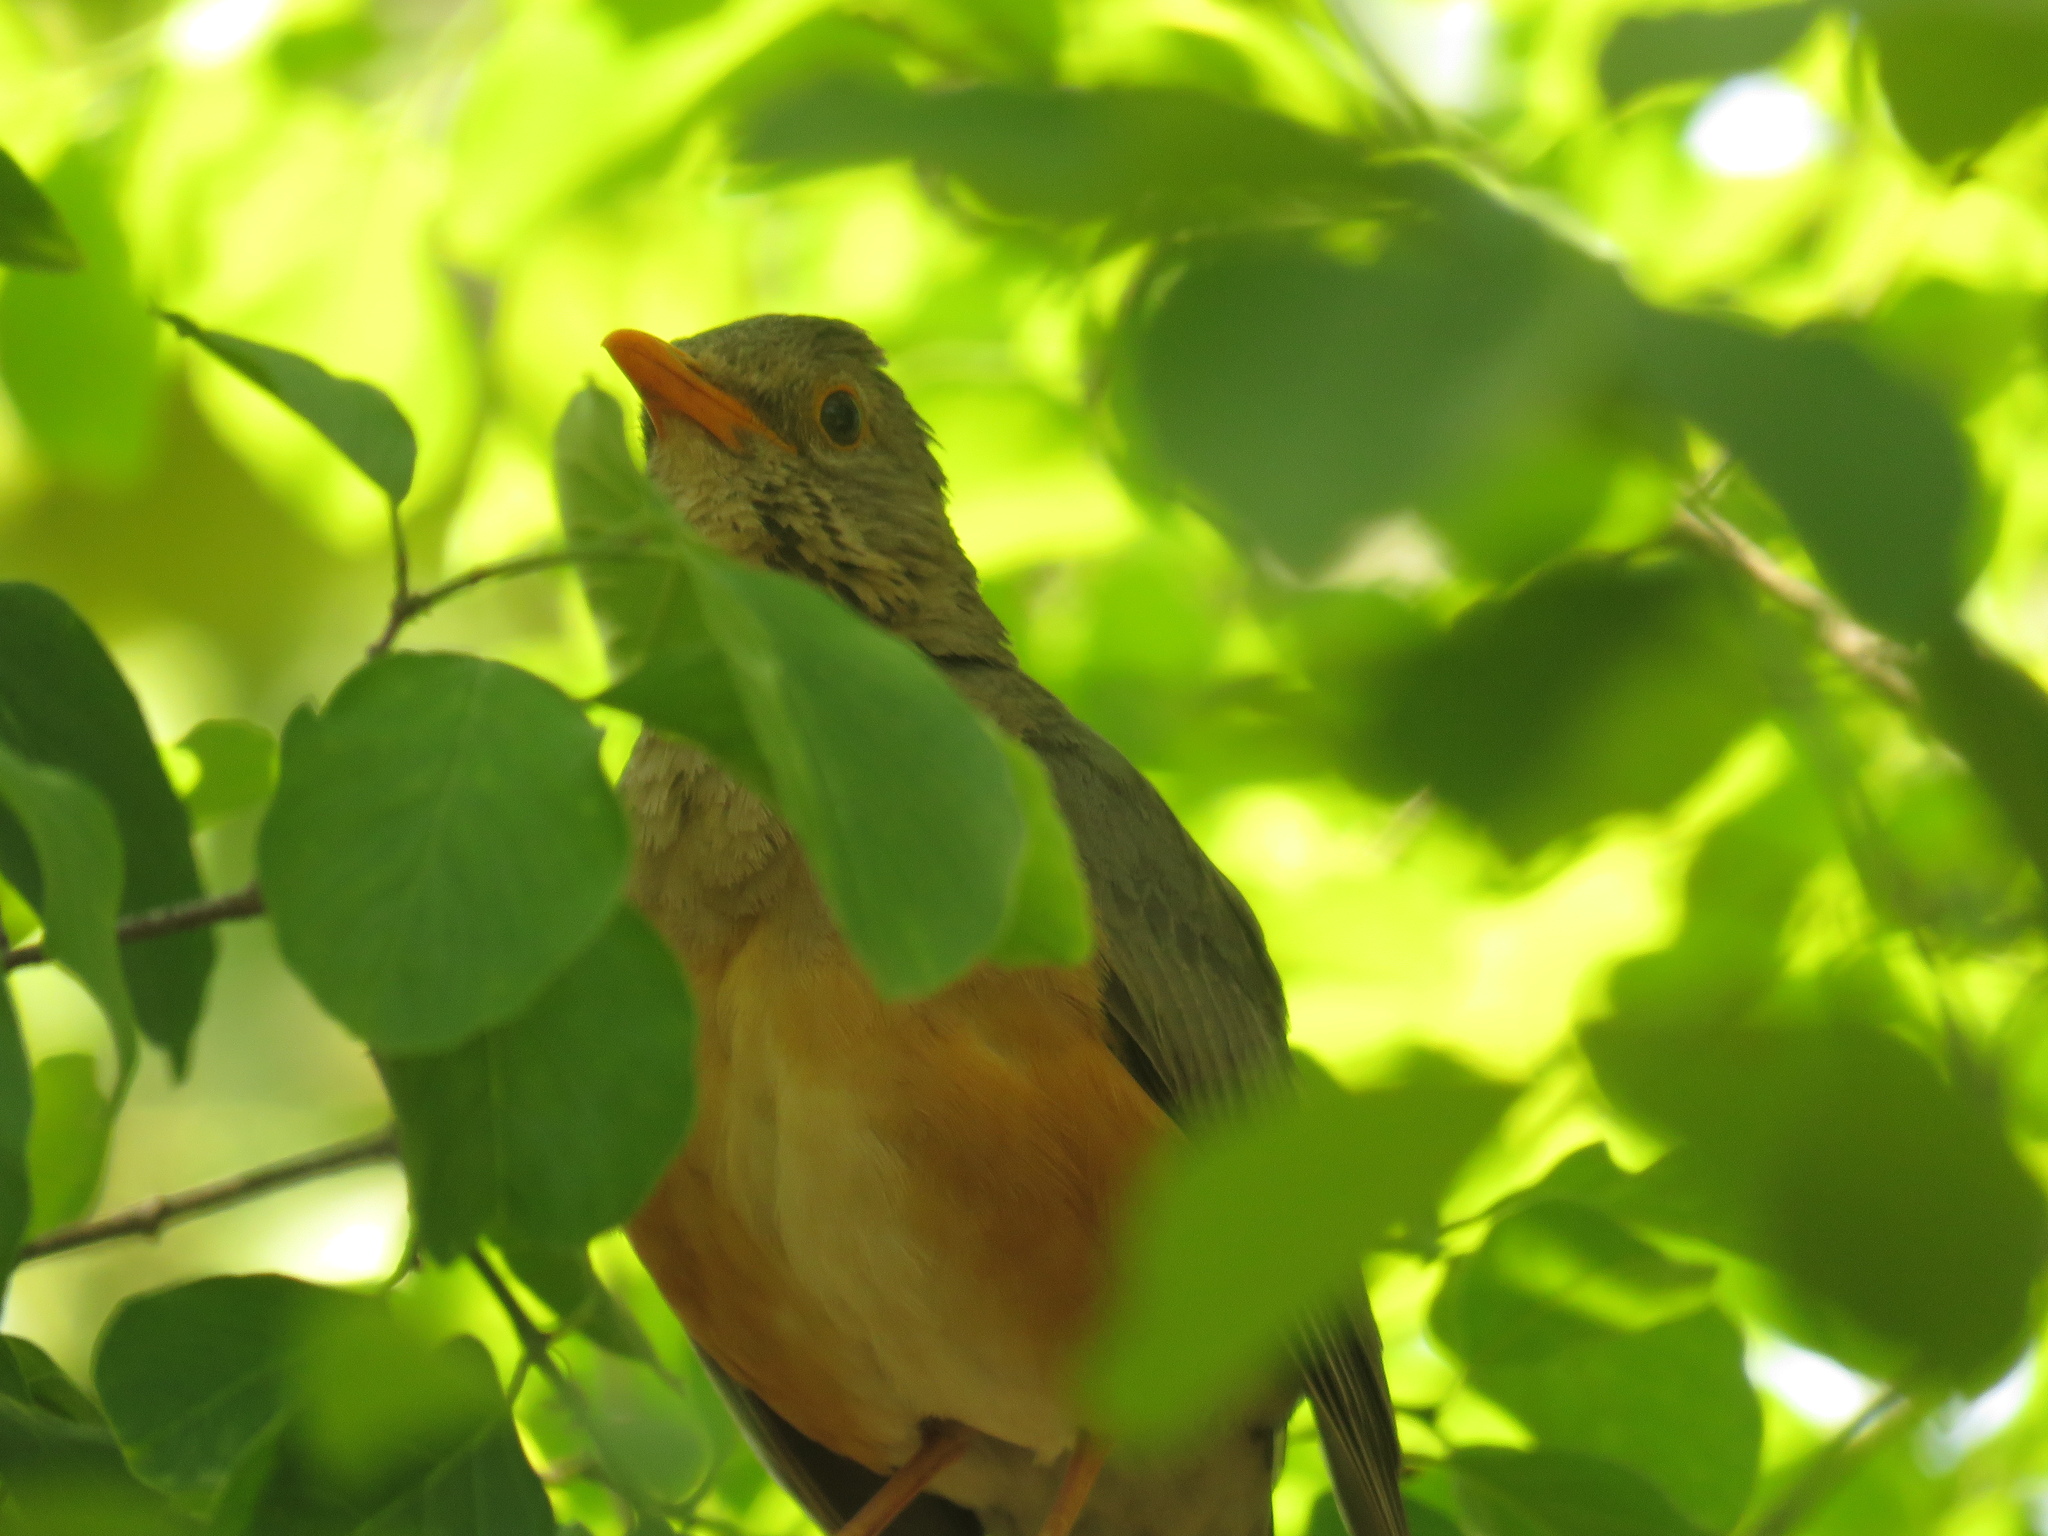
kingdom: Animalia
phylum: Chordata
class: Aves
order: Passeriformes
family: Turdidae
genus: Turdus
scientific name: Turdus libonyana
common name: Kurrichane thrush
